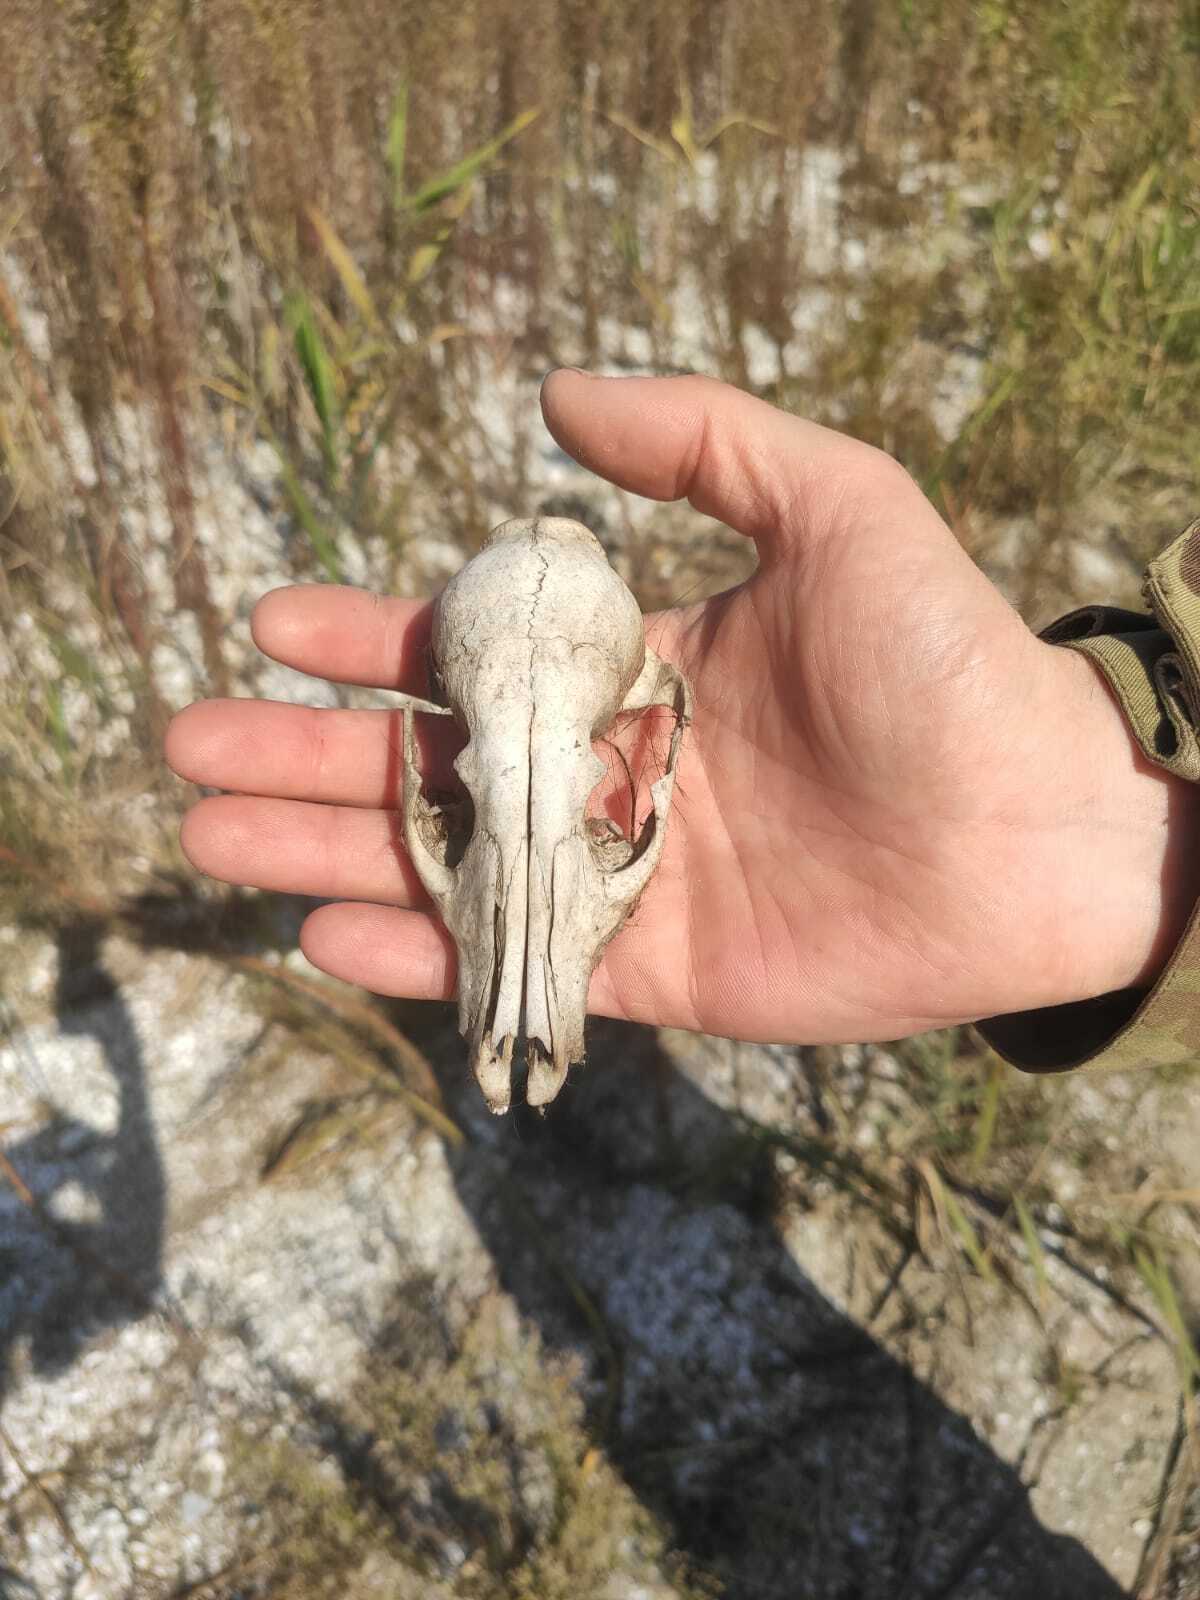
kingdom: Animalia
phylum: Chordata
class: Mammalia
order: Carnivora
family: Canidae
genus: Vulpes
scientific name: Vulpes vulpes
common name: Red fox
